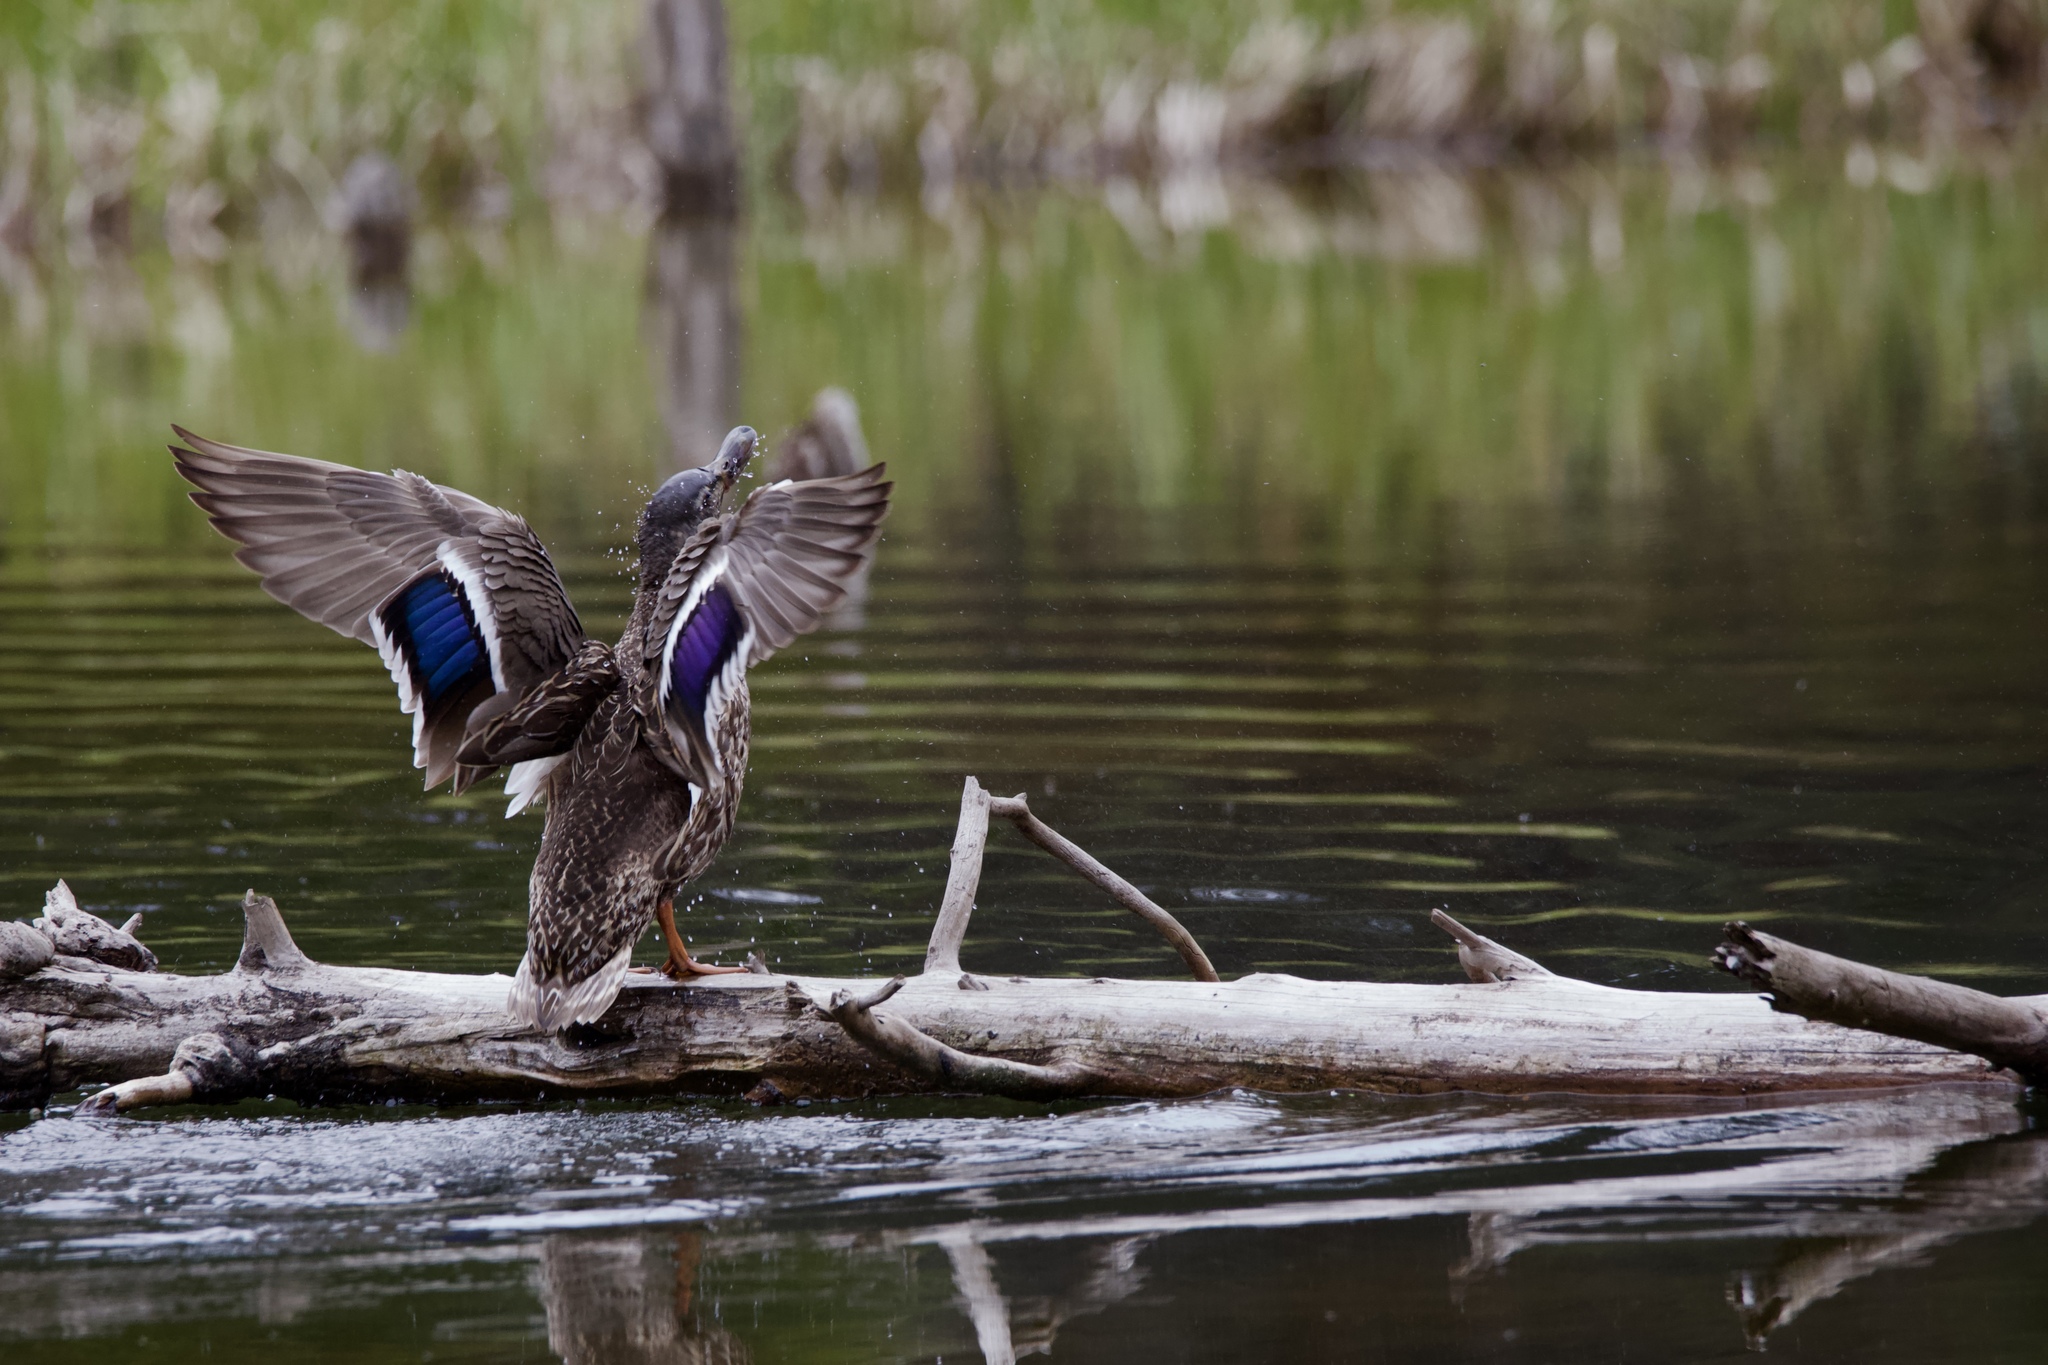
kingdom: Animalia
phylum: Chordata
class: Aves
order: Anseriformes
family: Anatidae
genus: Anas
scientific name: Anas platyrhynchos
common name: Mallard
